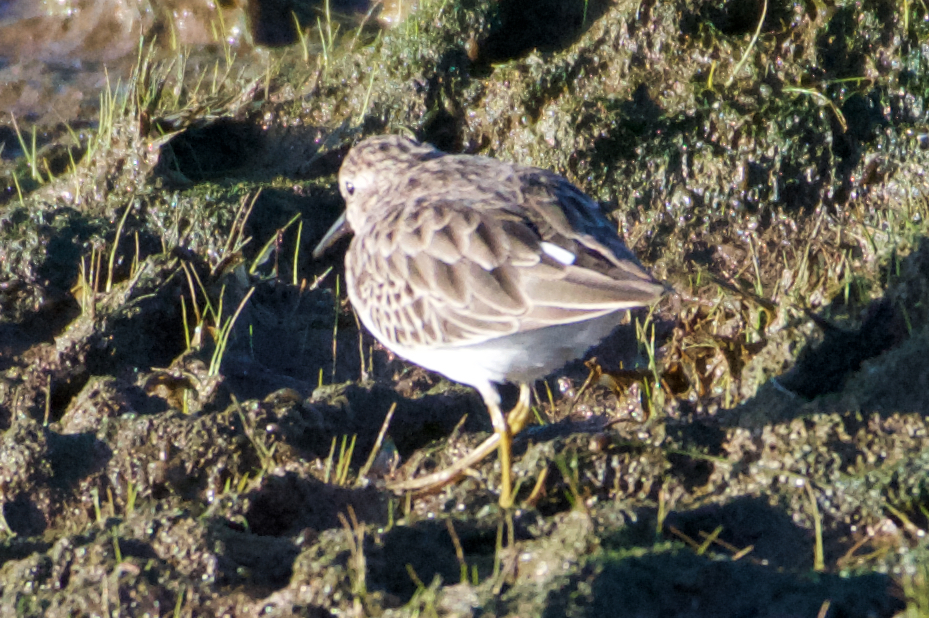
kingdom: Animalia
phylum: Chordata
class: Aves
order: Charadriiformes
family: Scolopacidae
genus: Calidris
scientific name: Calidris minutilla
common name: Least sandpiper
